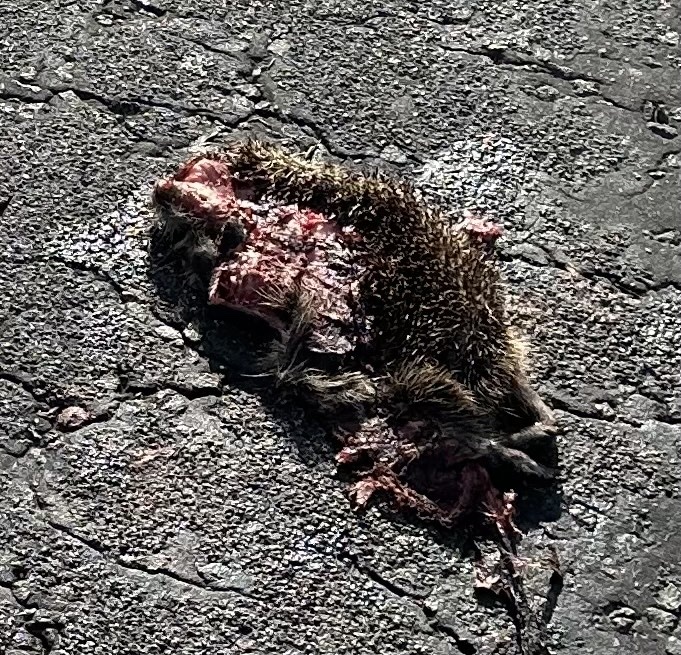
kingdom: Animalia
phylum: Chordata
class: Mammalia
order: Erinaceomorpha
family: Erinaceidae
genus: Erinaceus
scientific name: Erinaceus europaeus
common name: West european hedgehog
